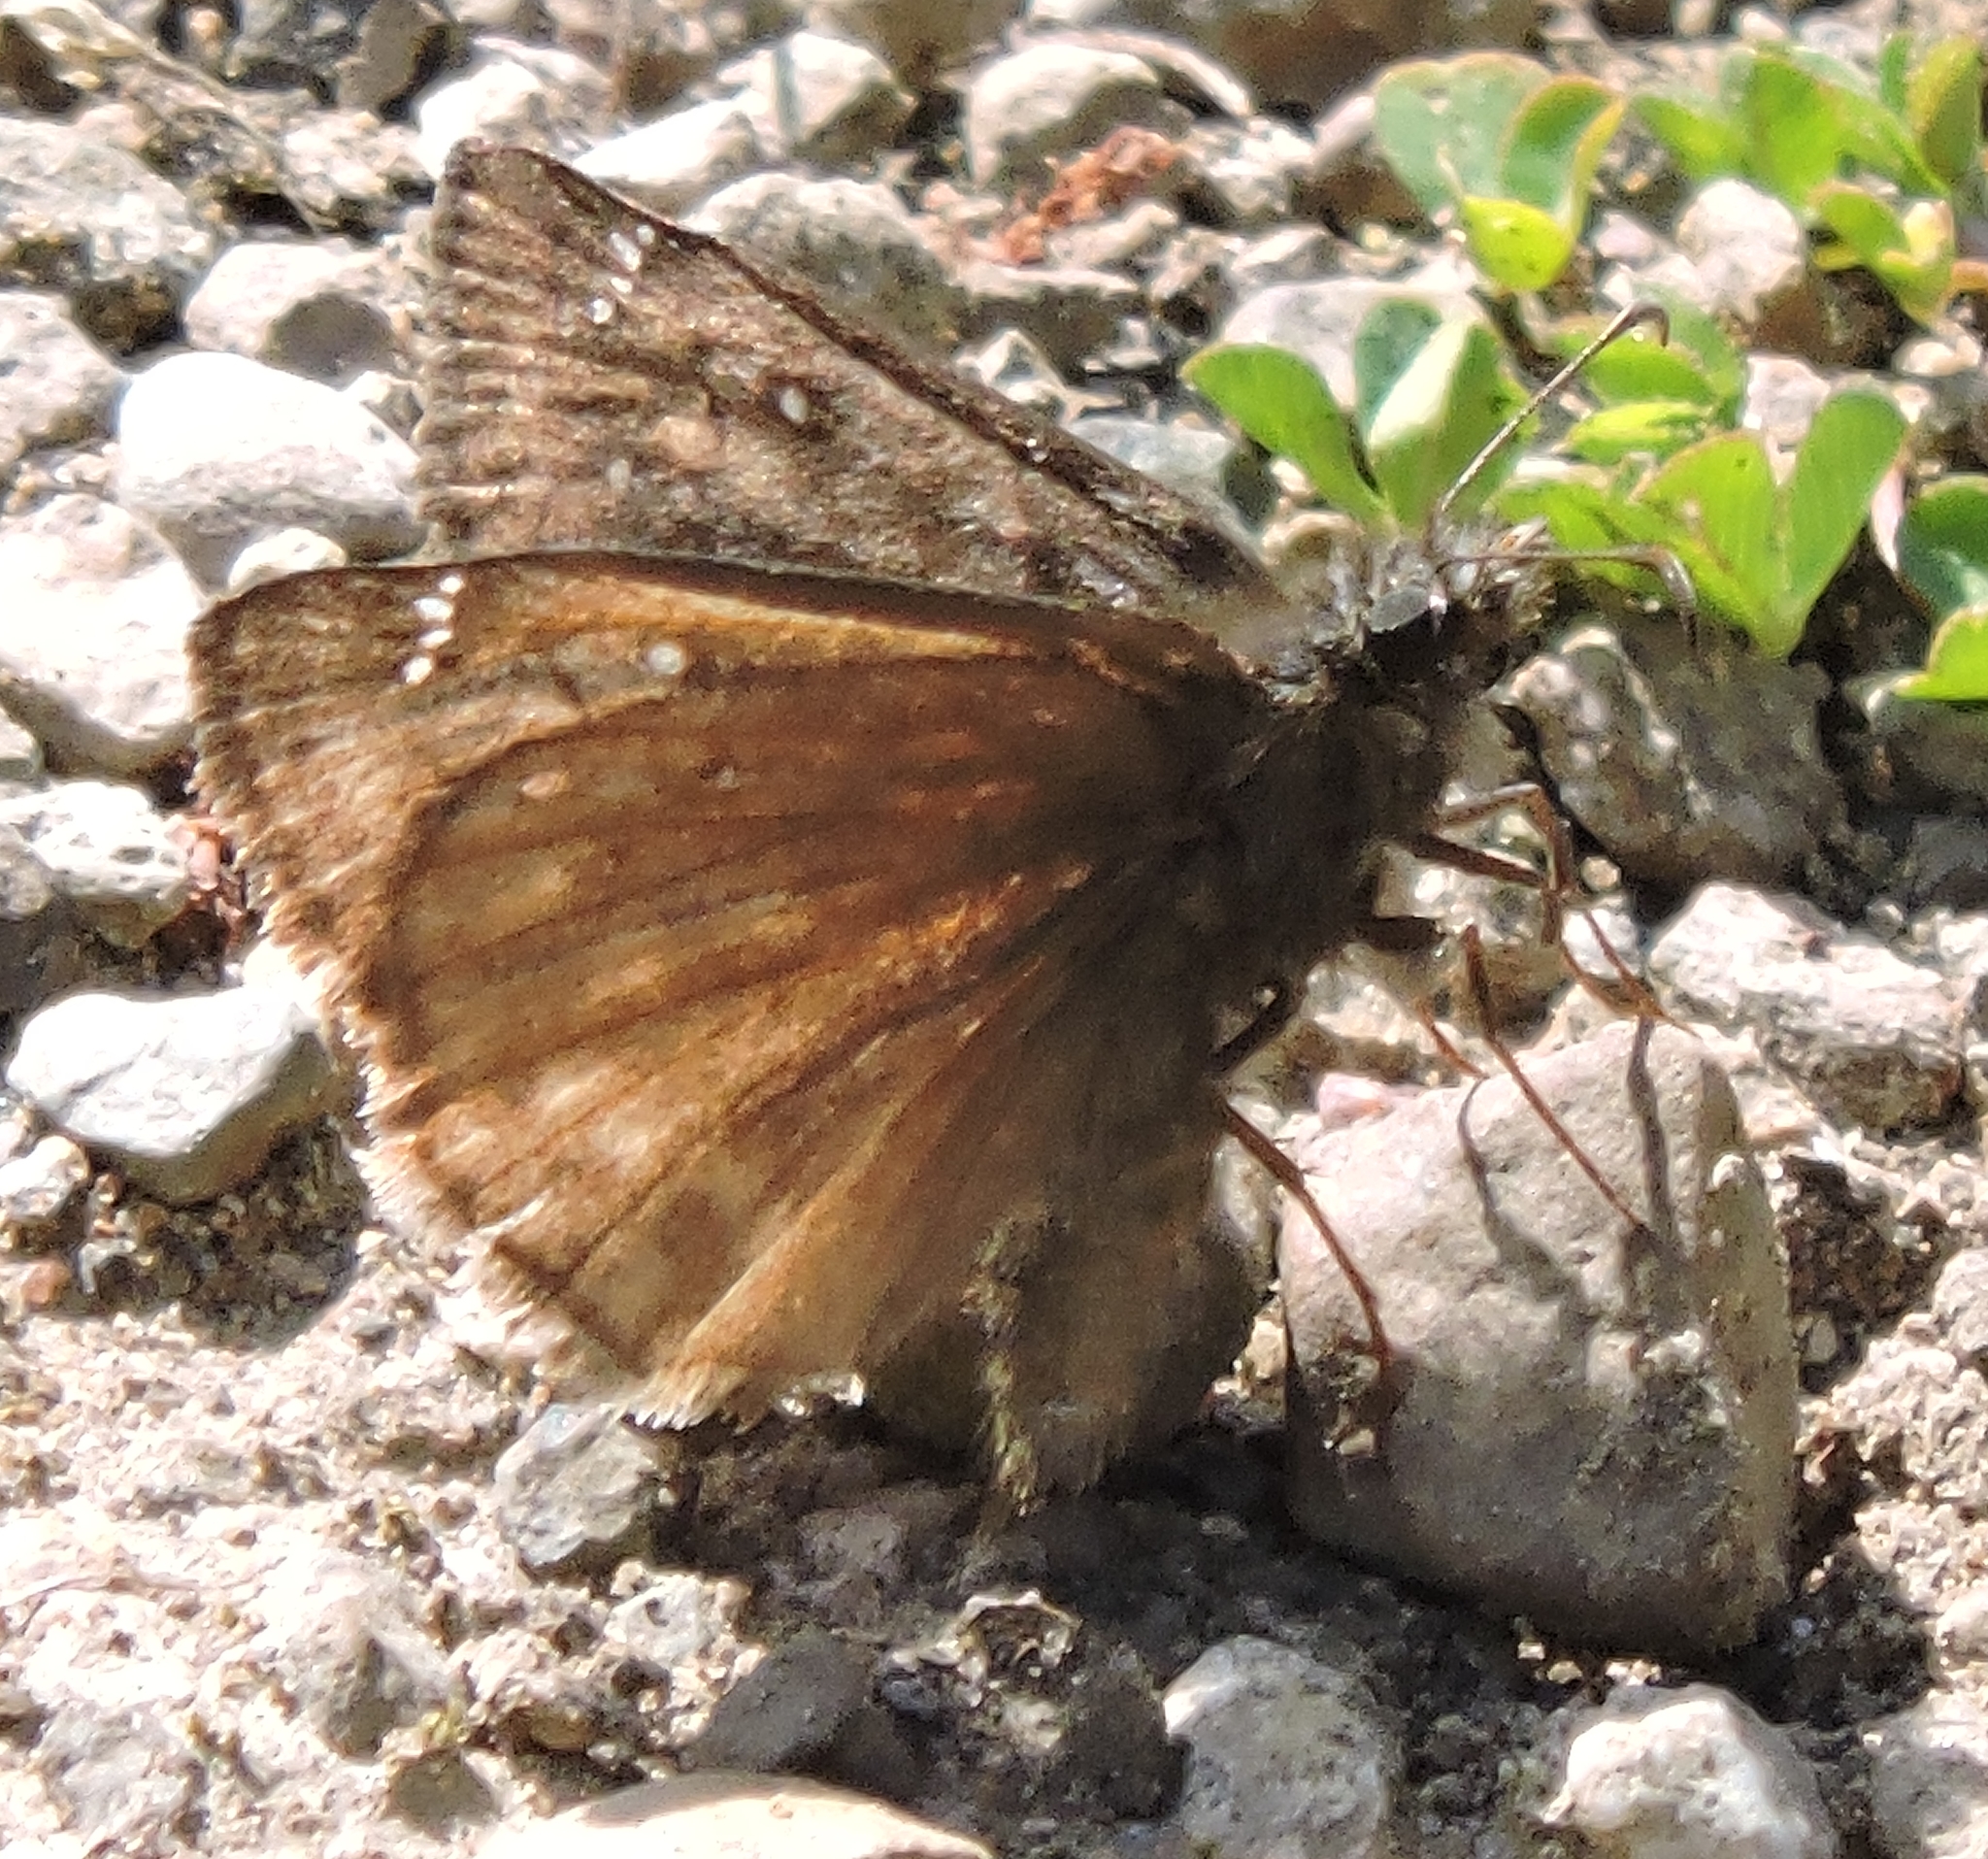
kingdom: Animalia
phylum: Arthropoda
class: Insecta
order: Lepidoptera
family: Hesperiidae
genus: Erynnis
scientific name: Erynnis propertius
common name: Propertius duskywing
